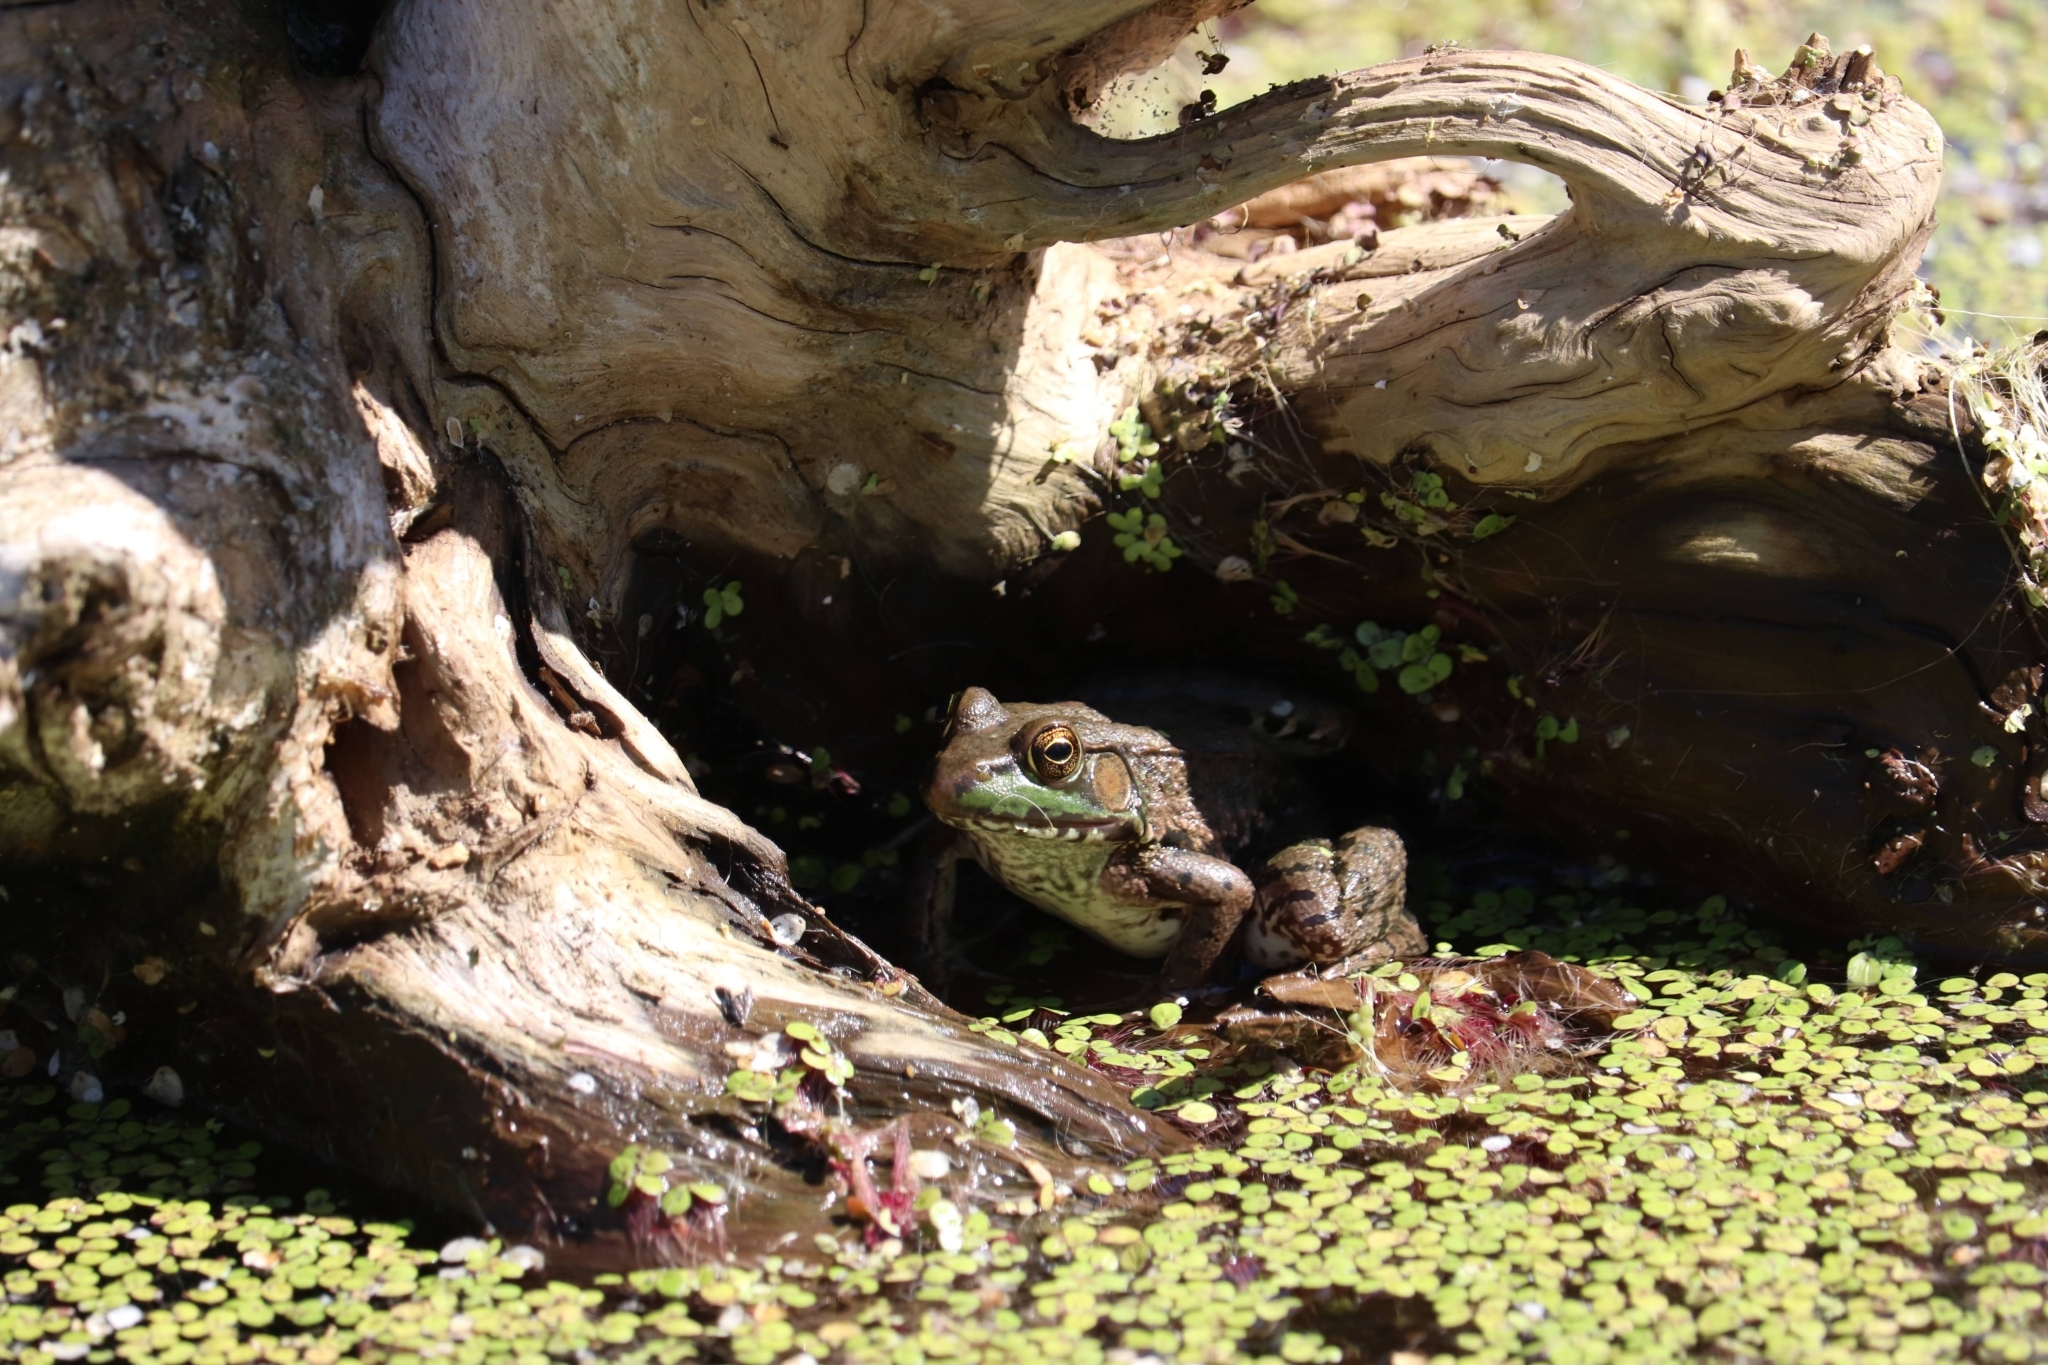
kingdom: Animalia
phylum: Chordata
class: Amphibia
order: Anura
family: Ranidae
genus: Lithobates
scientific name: Lithobates clamitans
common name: Green frog
